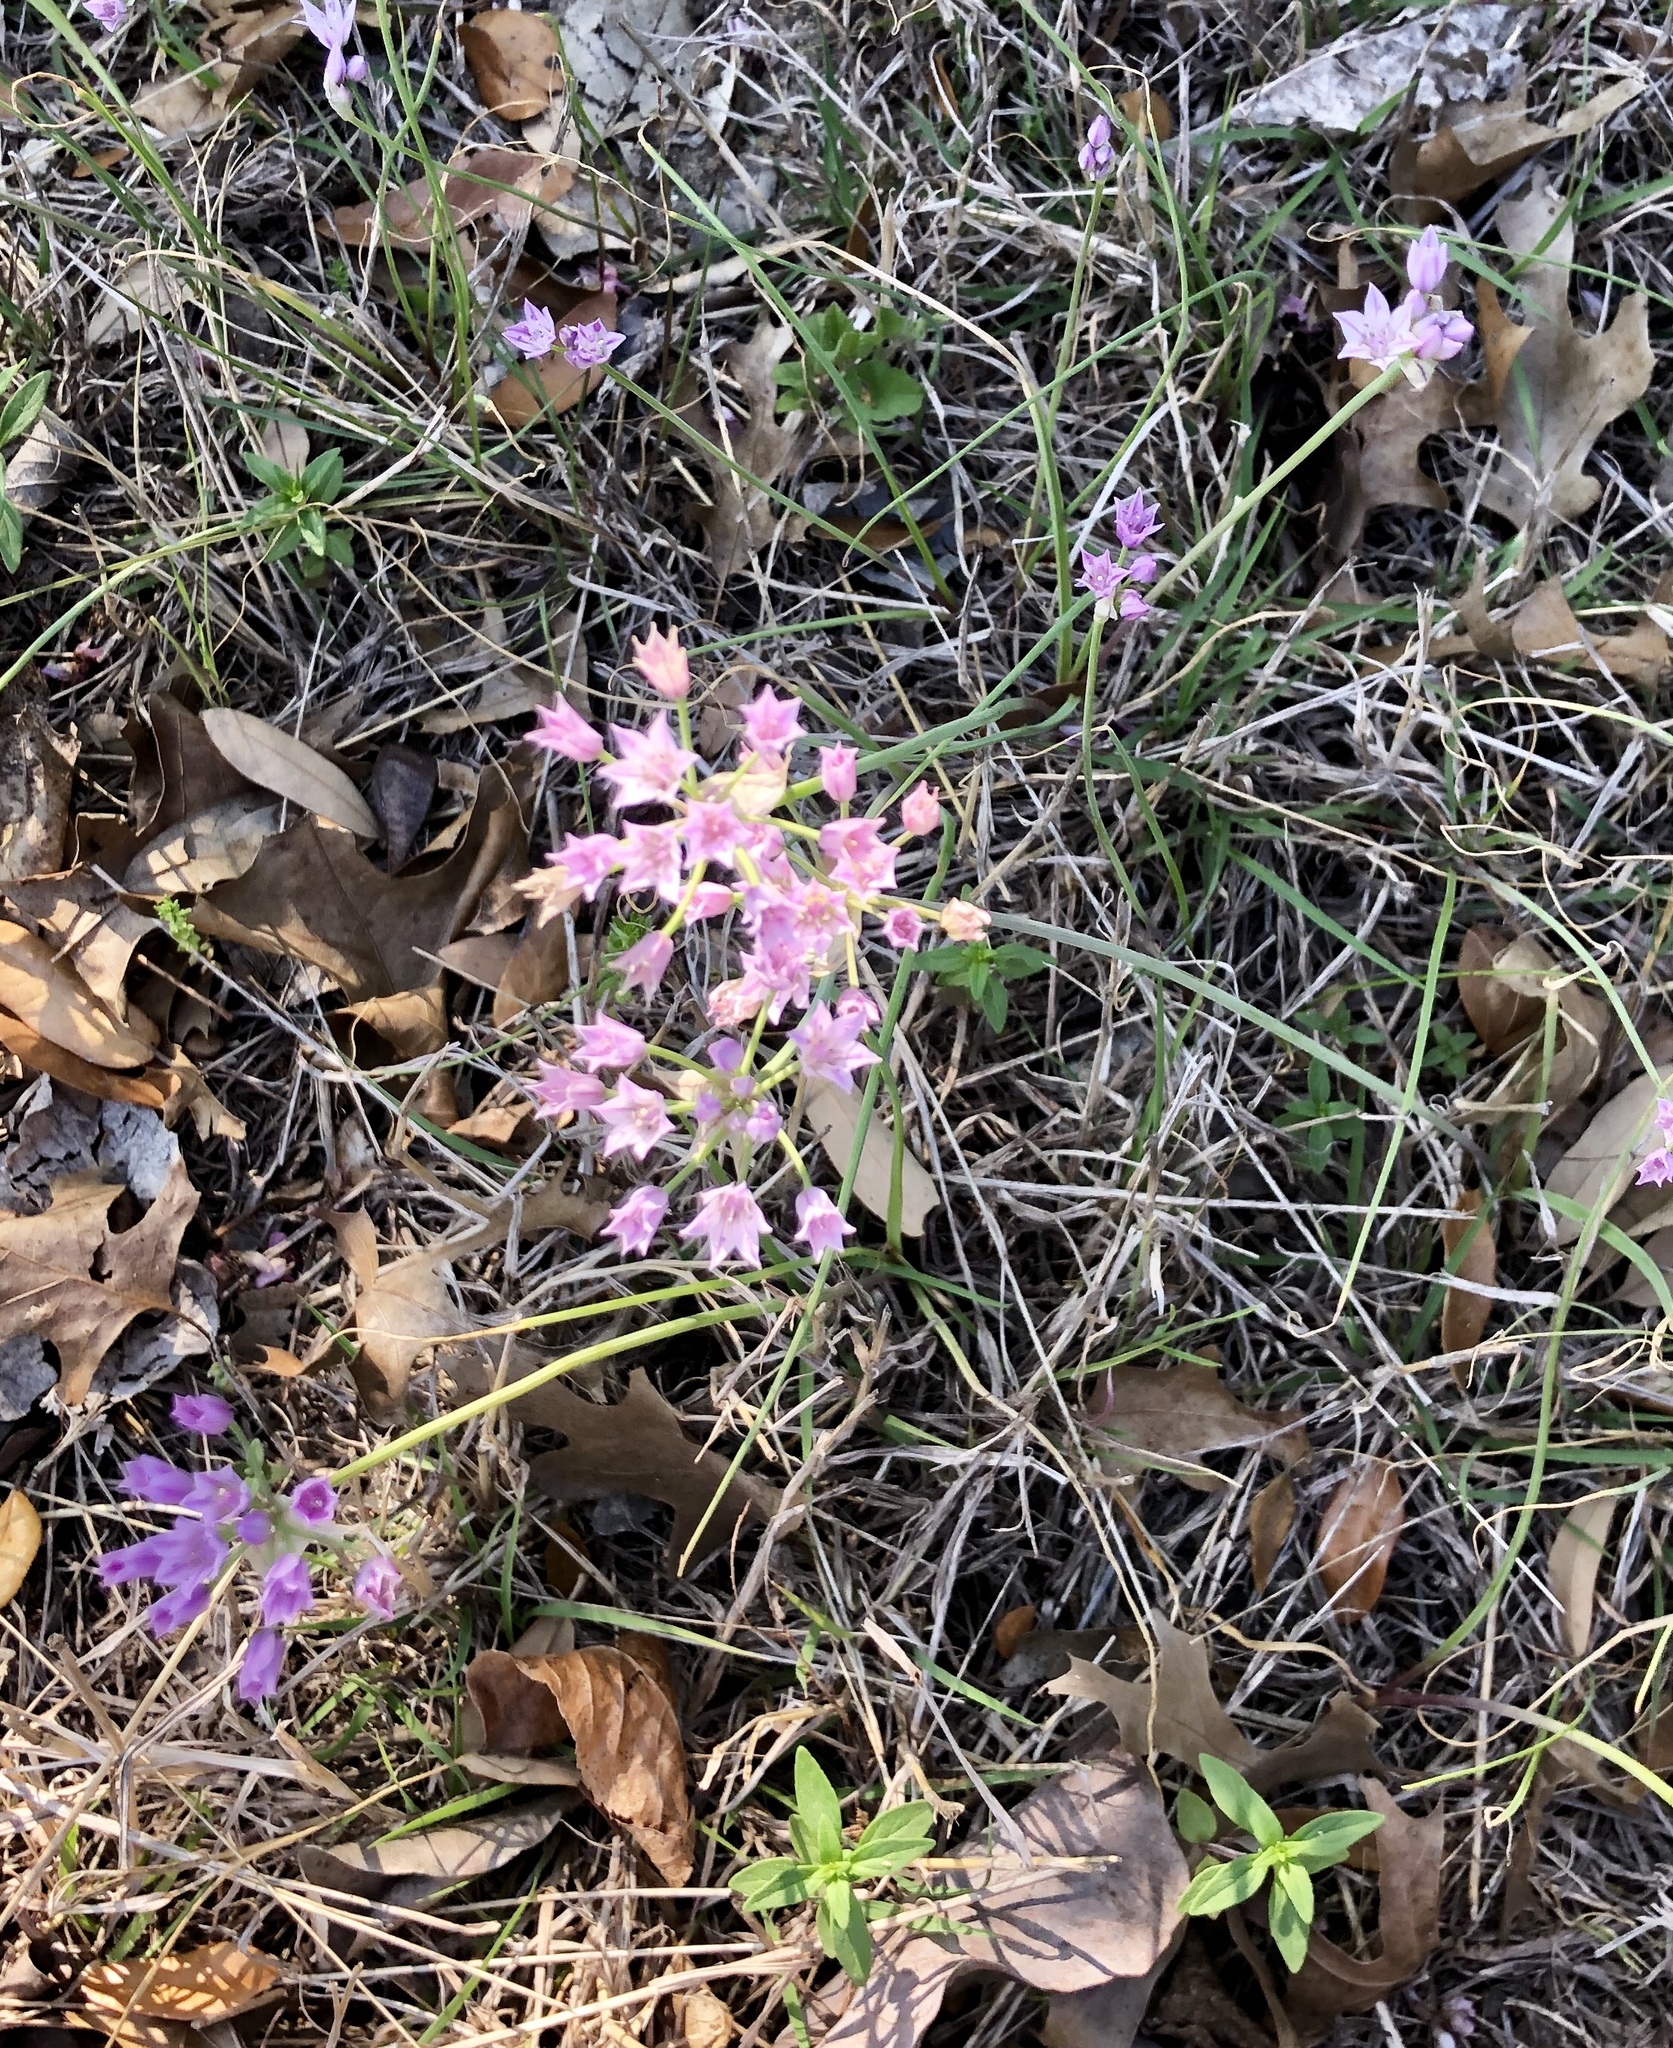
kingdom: Plantae
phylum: Tracheophyta
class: Liliopsida
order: Asparagales
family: Amaryllidaceae
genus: Allium
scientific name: Allium drummondii
